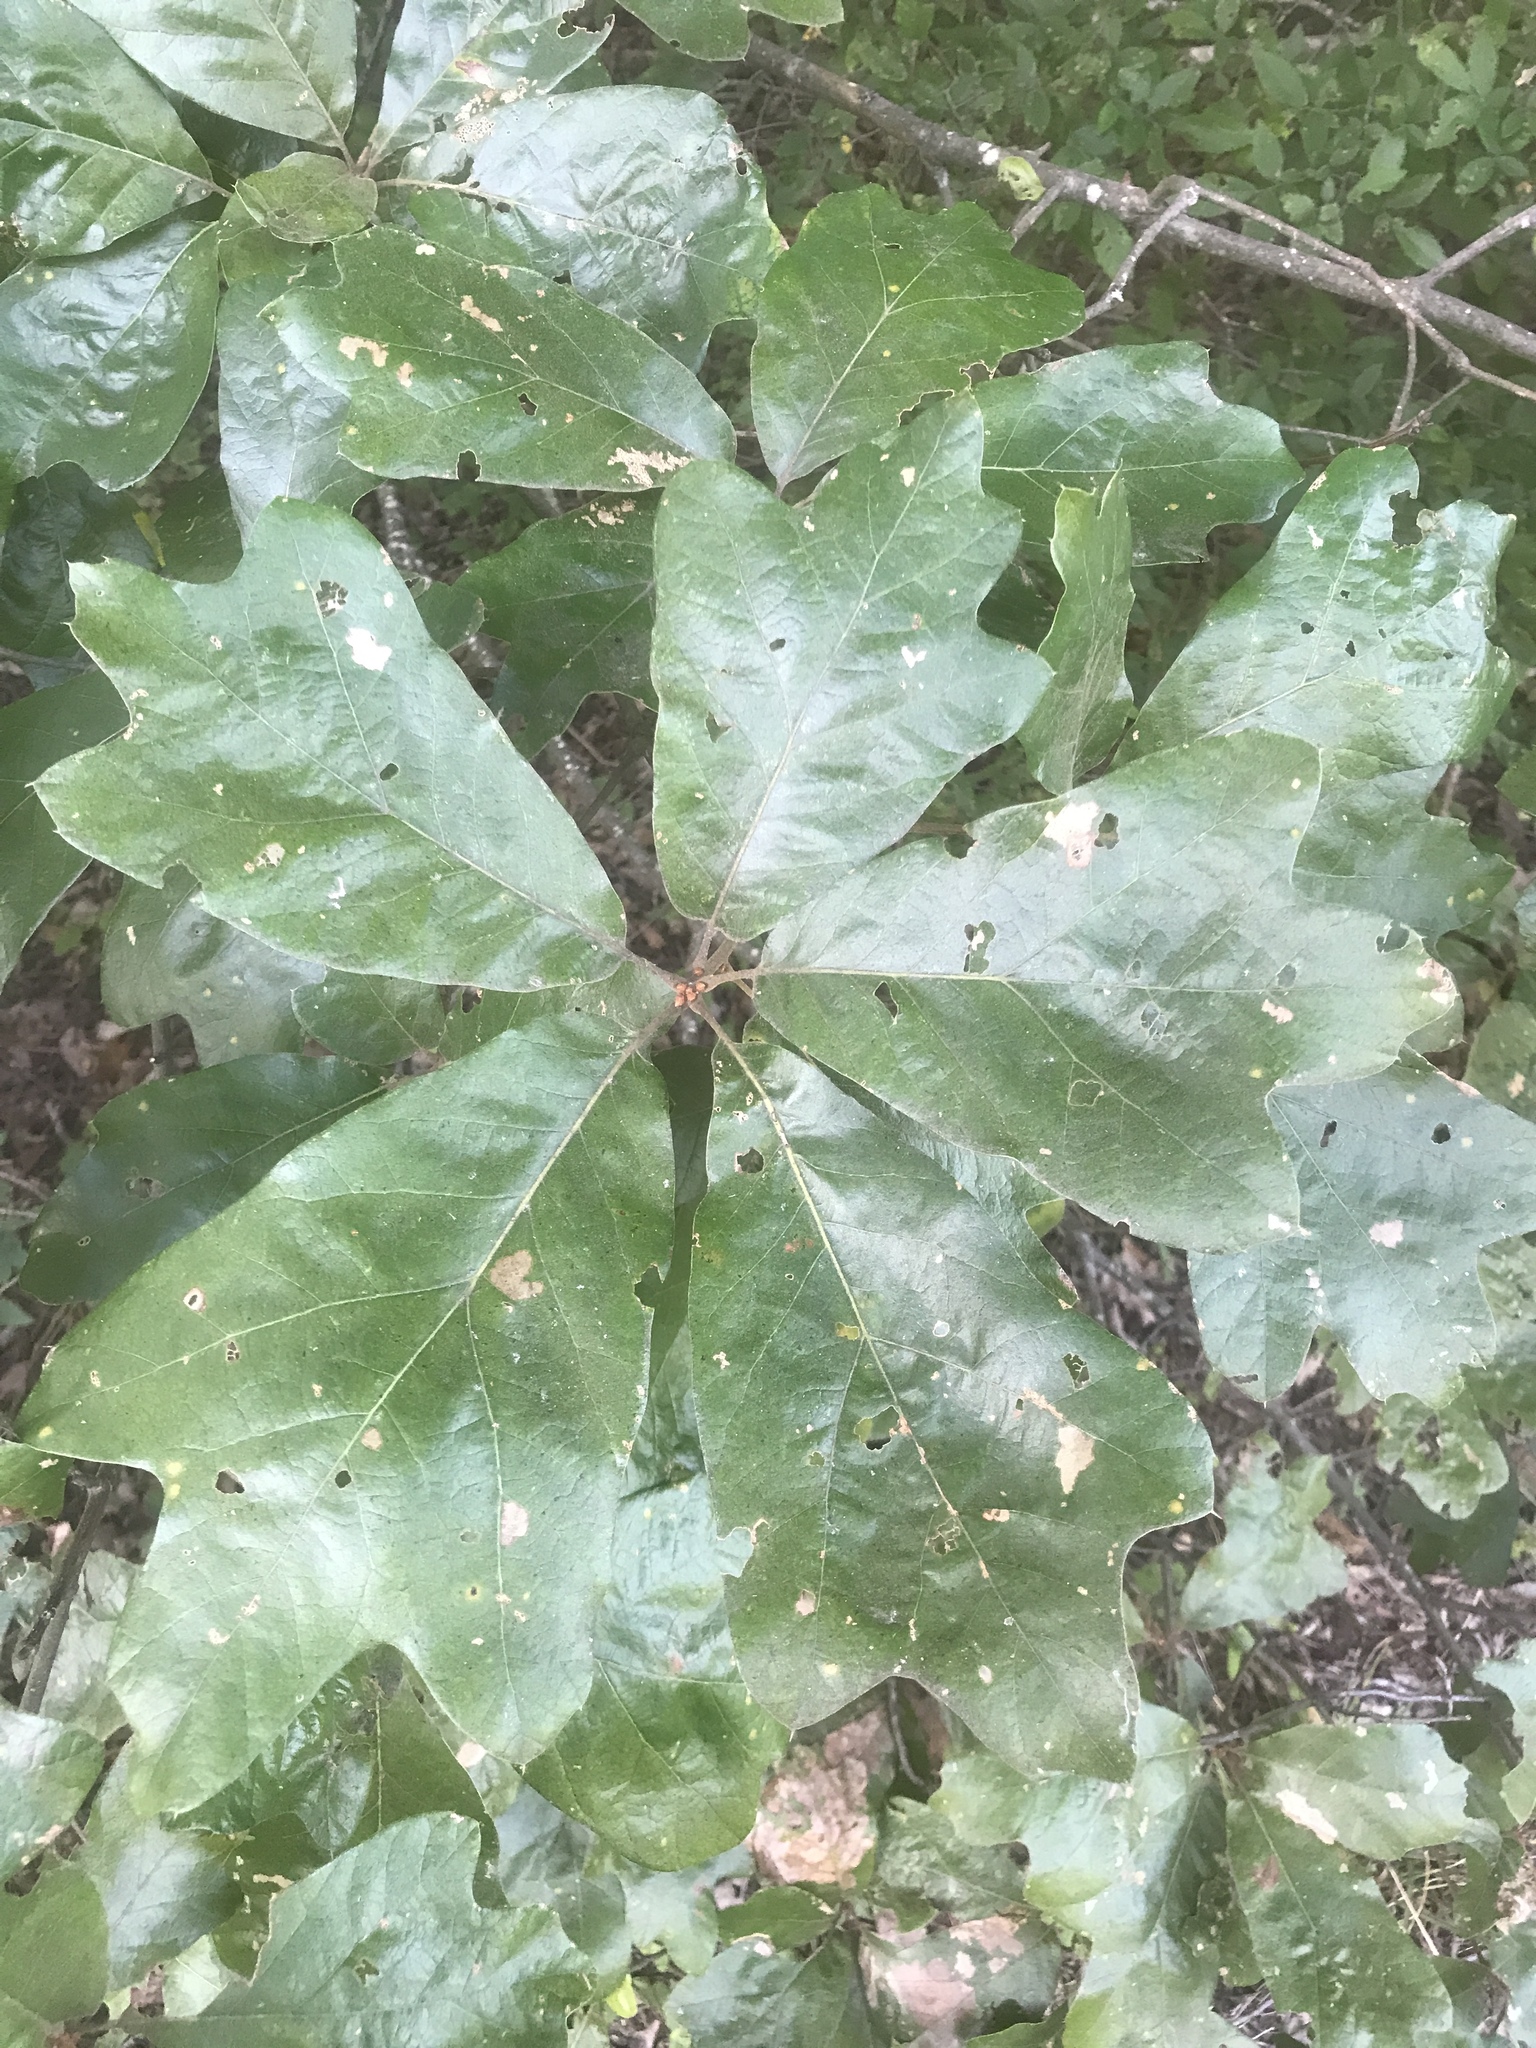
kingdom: Plantae
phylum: Tracheophyta
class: Magnoliopsida
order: Fagales
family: Fagaceae
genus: Quercus
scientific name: Quercus falcata
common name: Southern red oak
